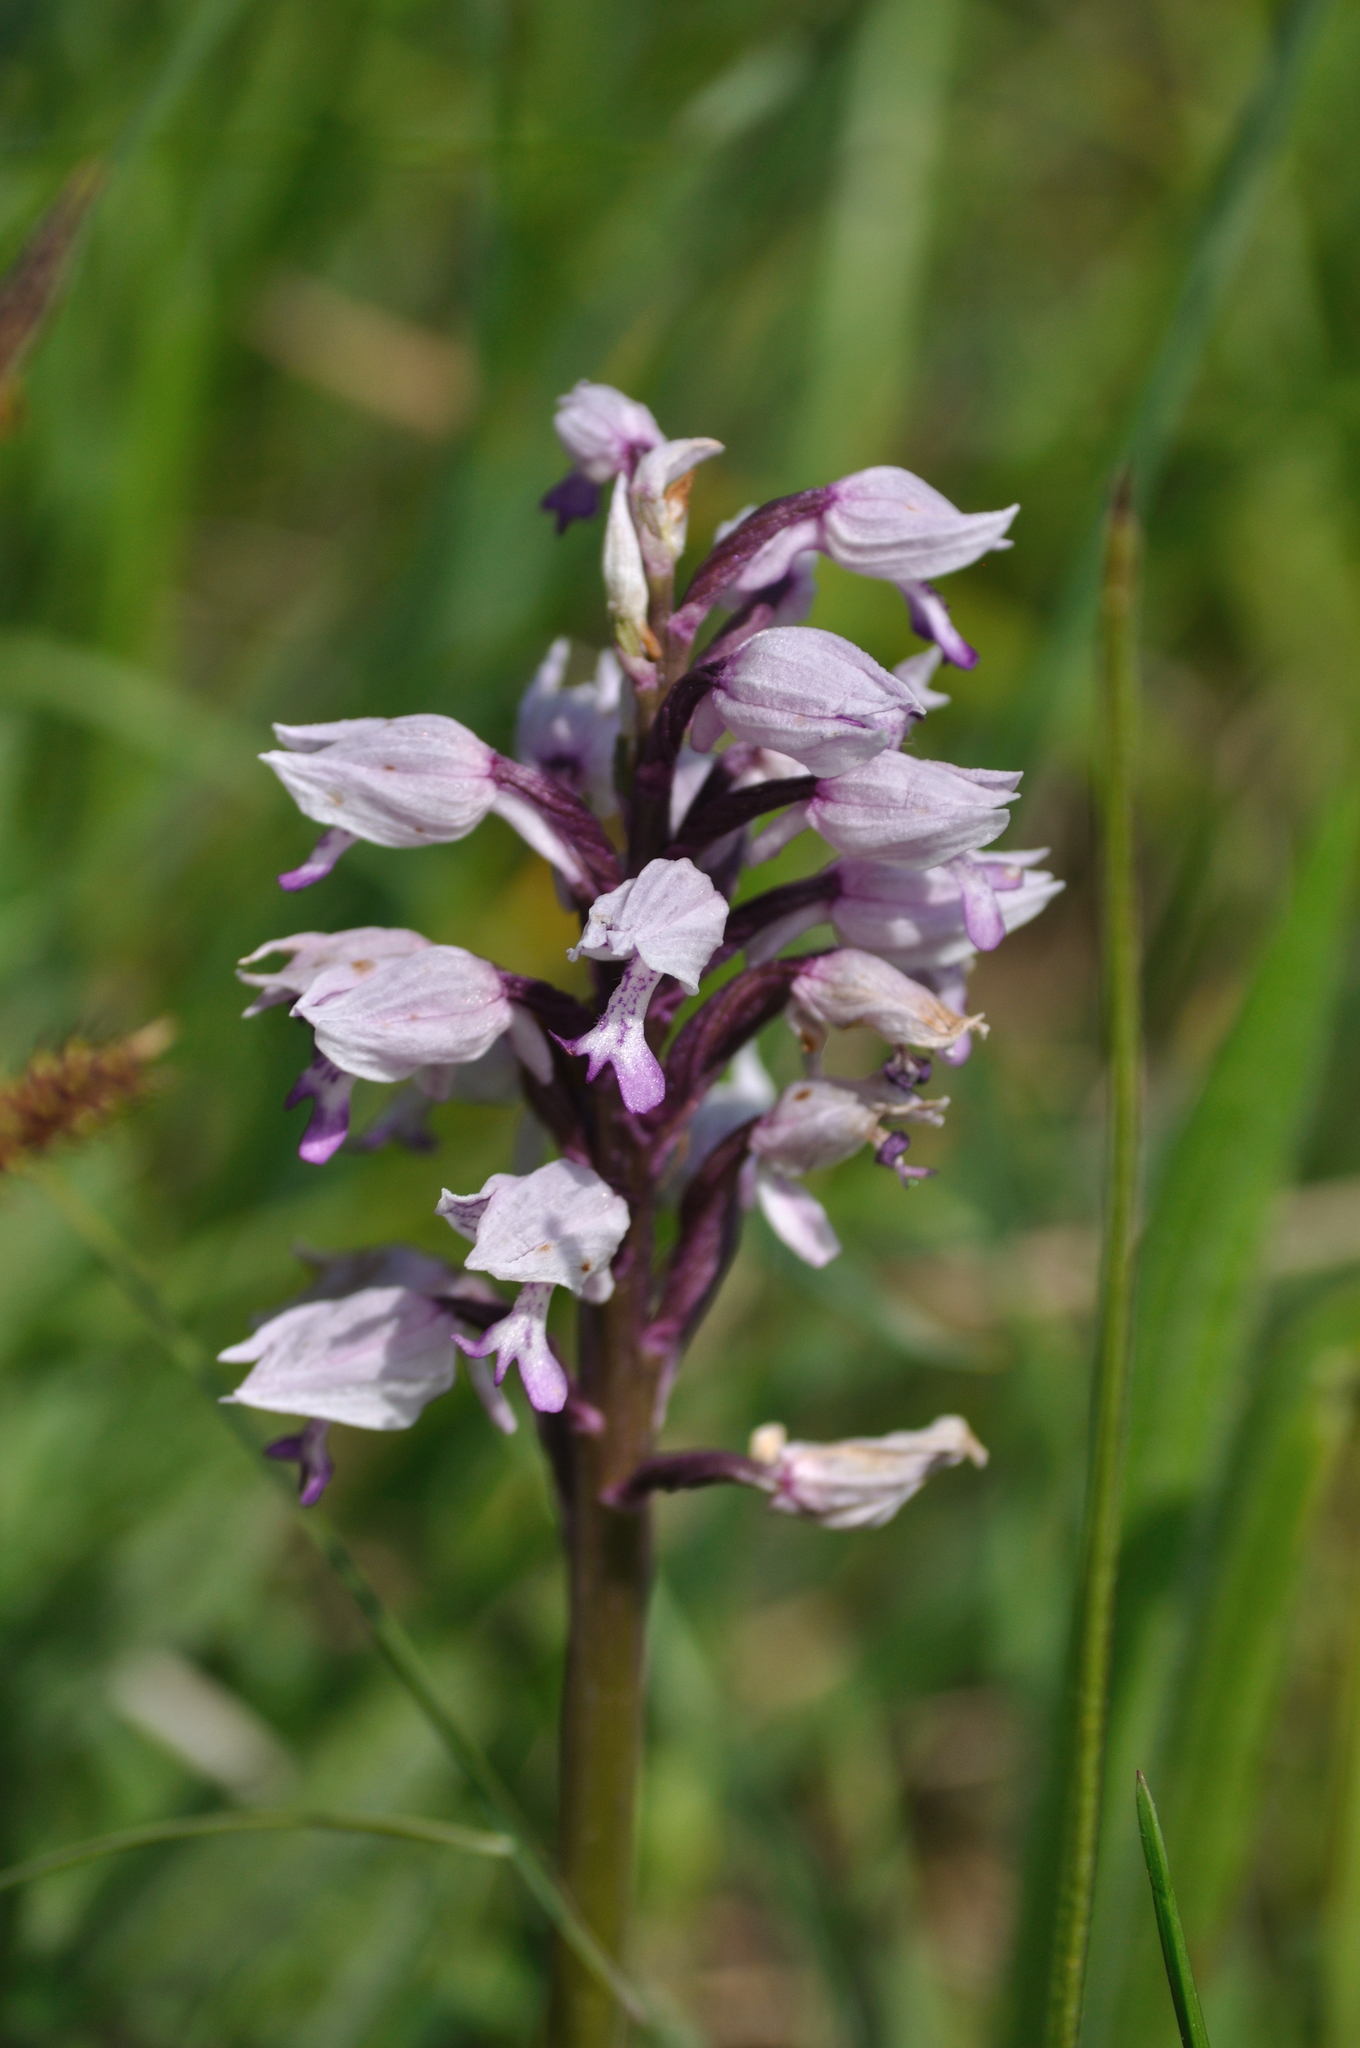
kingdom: Plantae
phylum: Tracheophyta
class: Liliopsida
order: Asparagales
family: Orchidaceae
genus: Orchis
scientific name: Orchis militaris
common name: Military orchid
